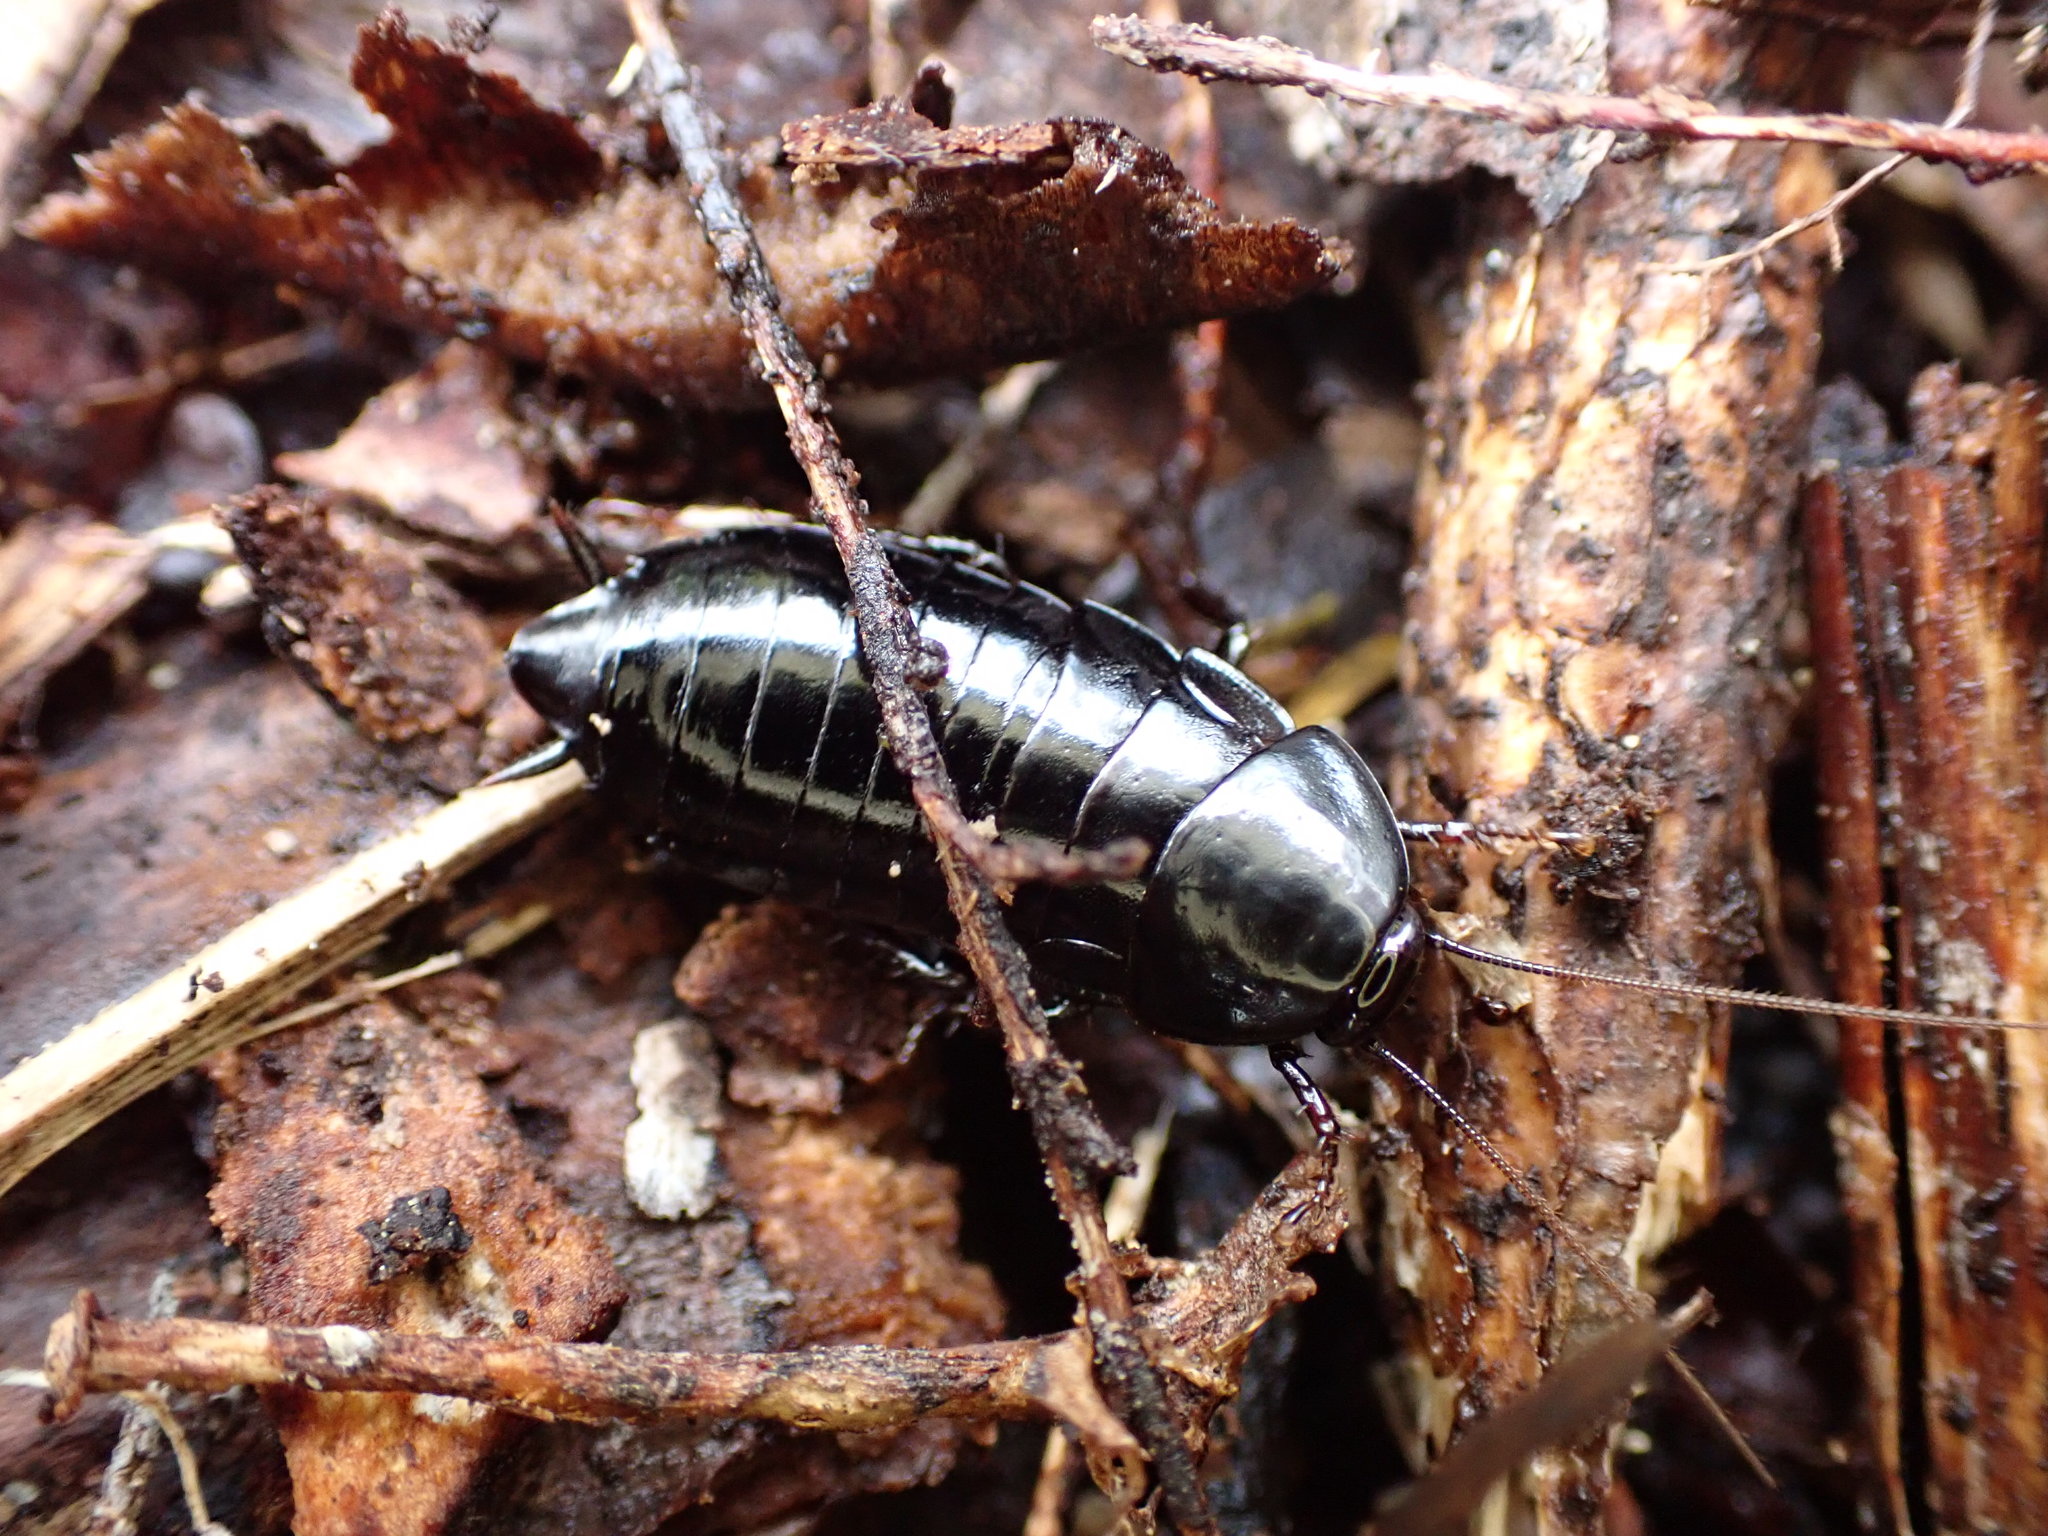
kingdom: Animalia
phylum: Arthropoda
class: Insecta
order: Blattodea
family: Blattidae
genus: Maoriblatta
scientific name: Maoriblatta novaeseelandiae
